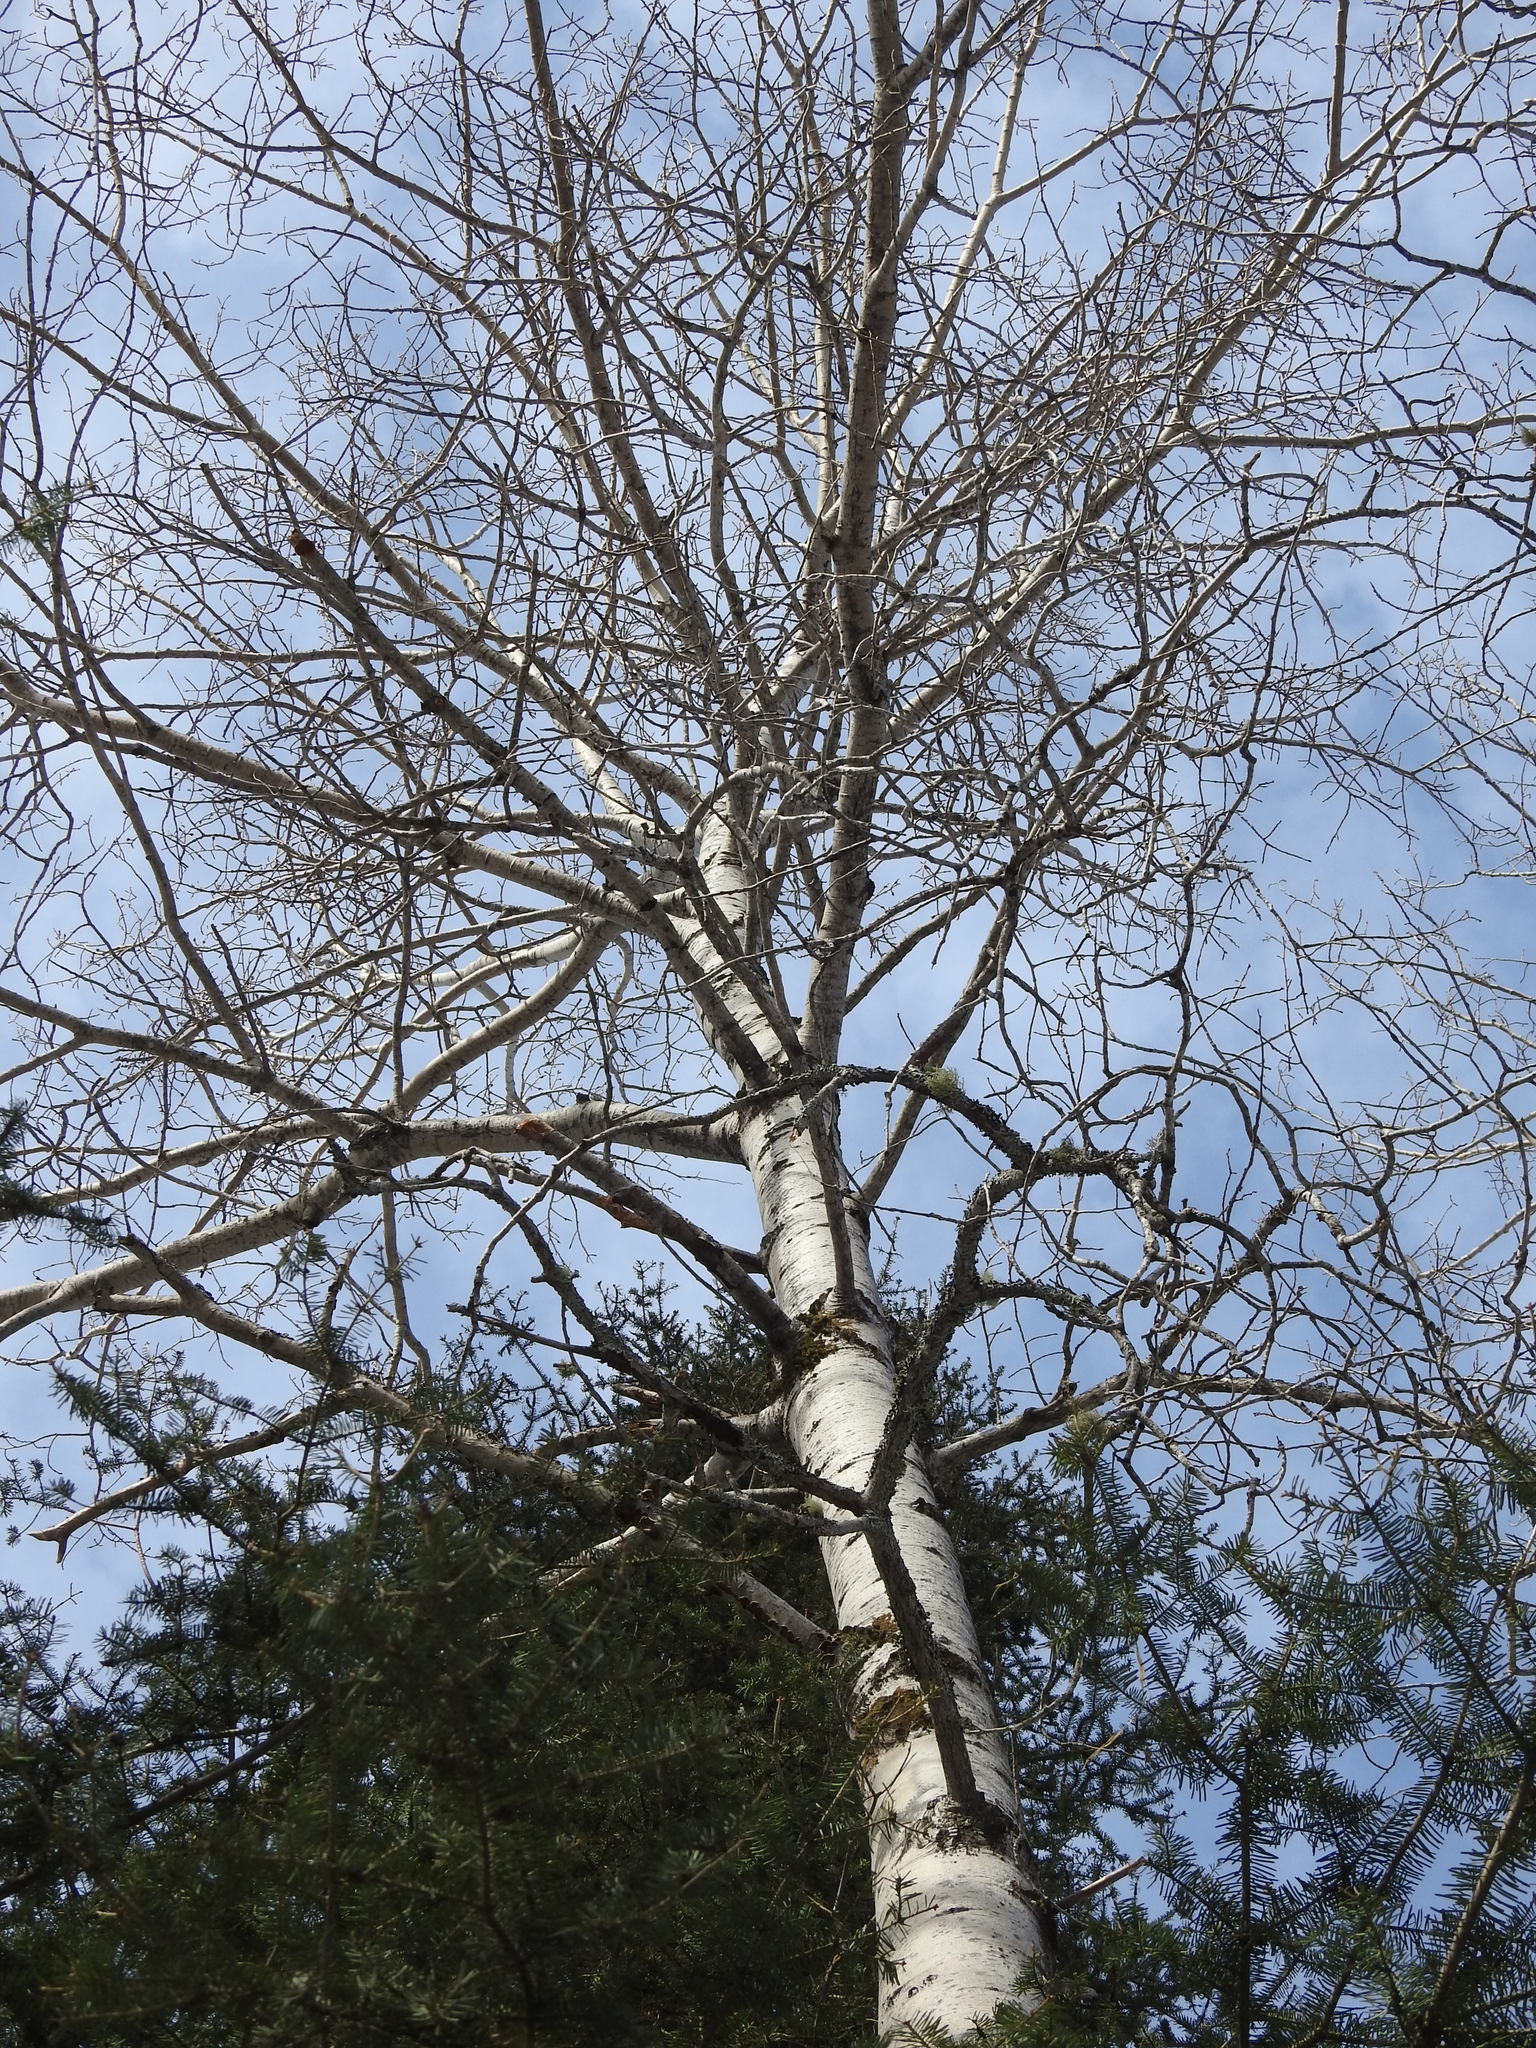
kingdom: Plantae
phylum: Tracheophyta
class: Magnoliopsida
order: Malpighiales
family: Salicaceae
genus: Populus
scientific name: Populus tremuloides
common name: Quaking aspen
